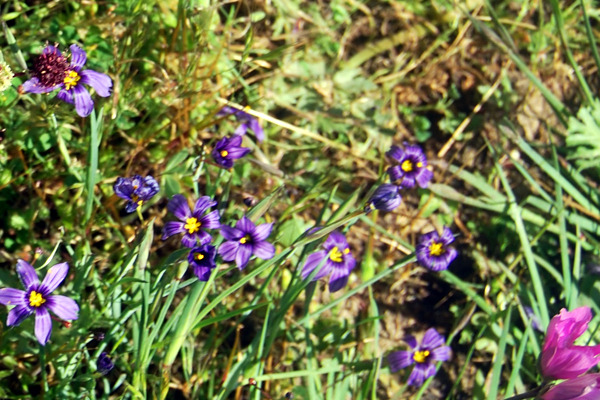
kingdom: Plantae
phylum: Tracheophyta
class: Liliopsida
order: Asparagales
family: Iridaceae
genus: Sisyrinchium
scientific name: Sisyrinchium bellum
